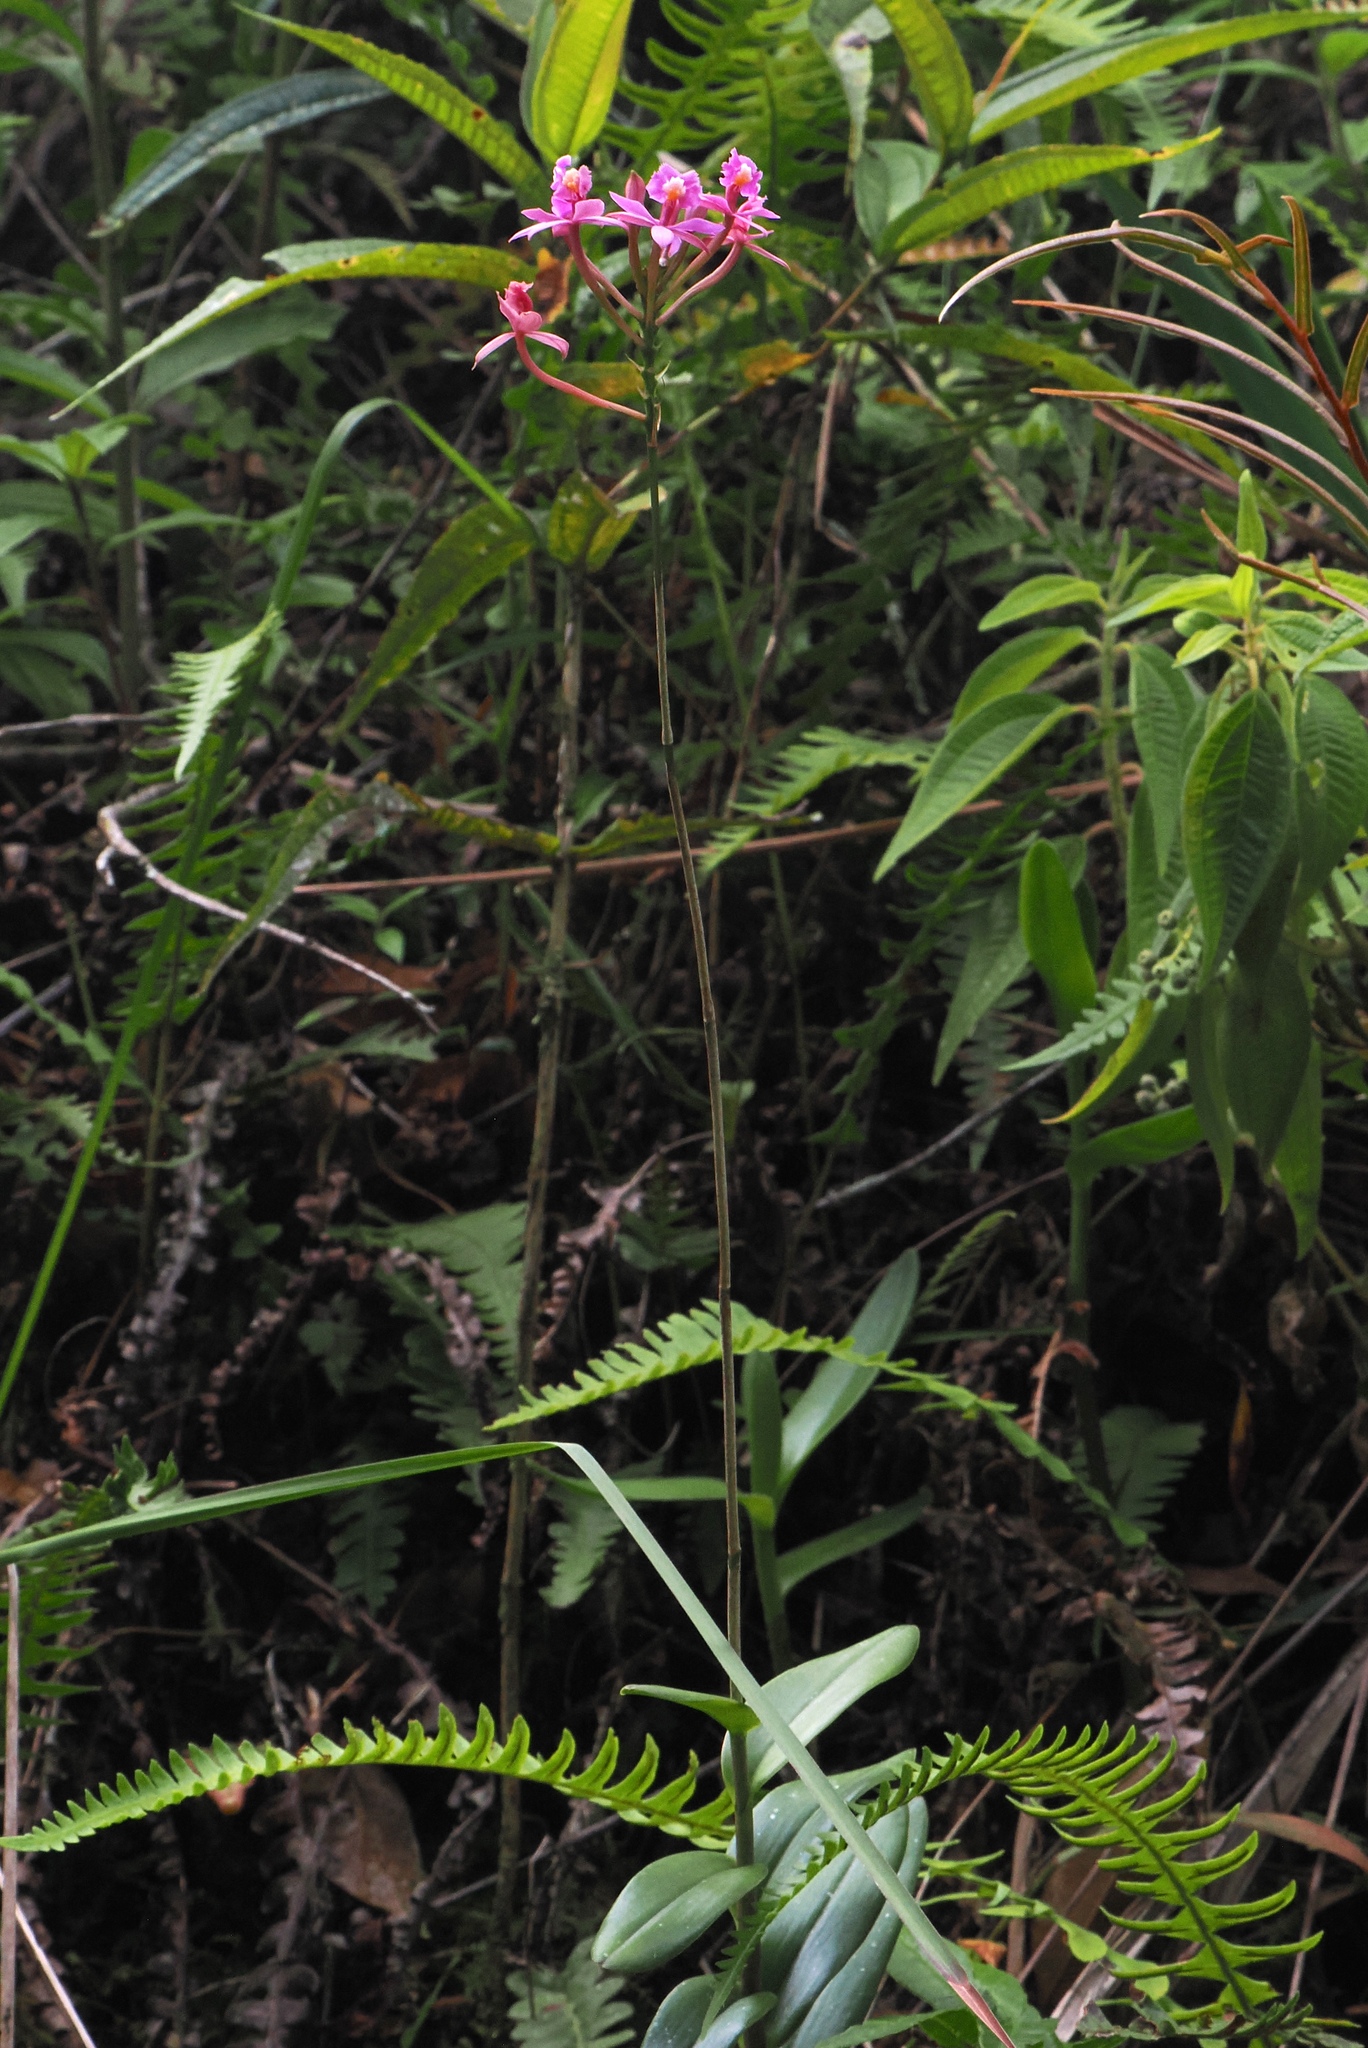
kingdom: Plantae
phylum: Tracheophyta
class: Liliopsida
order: Asparagales
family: Orchidaceae
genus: Epidendrum
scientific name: Epidendrum secundum
